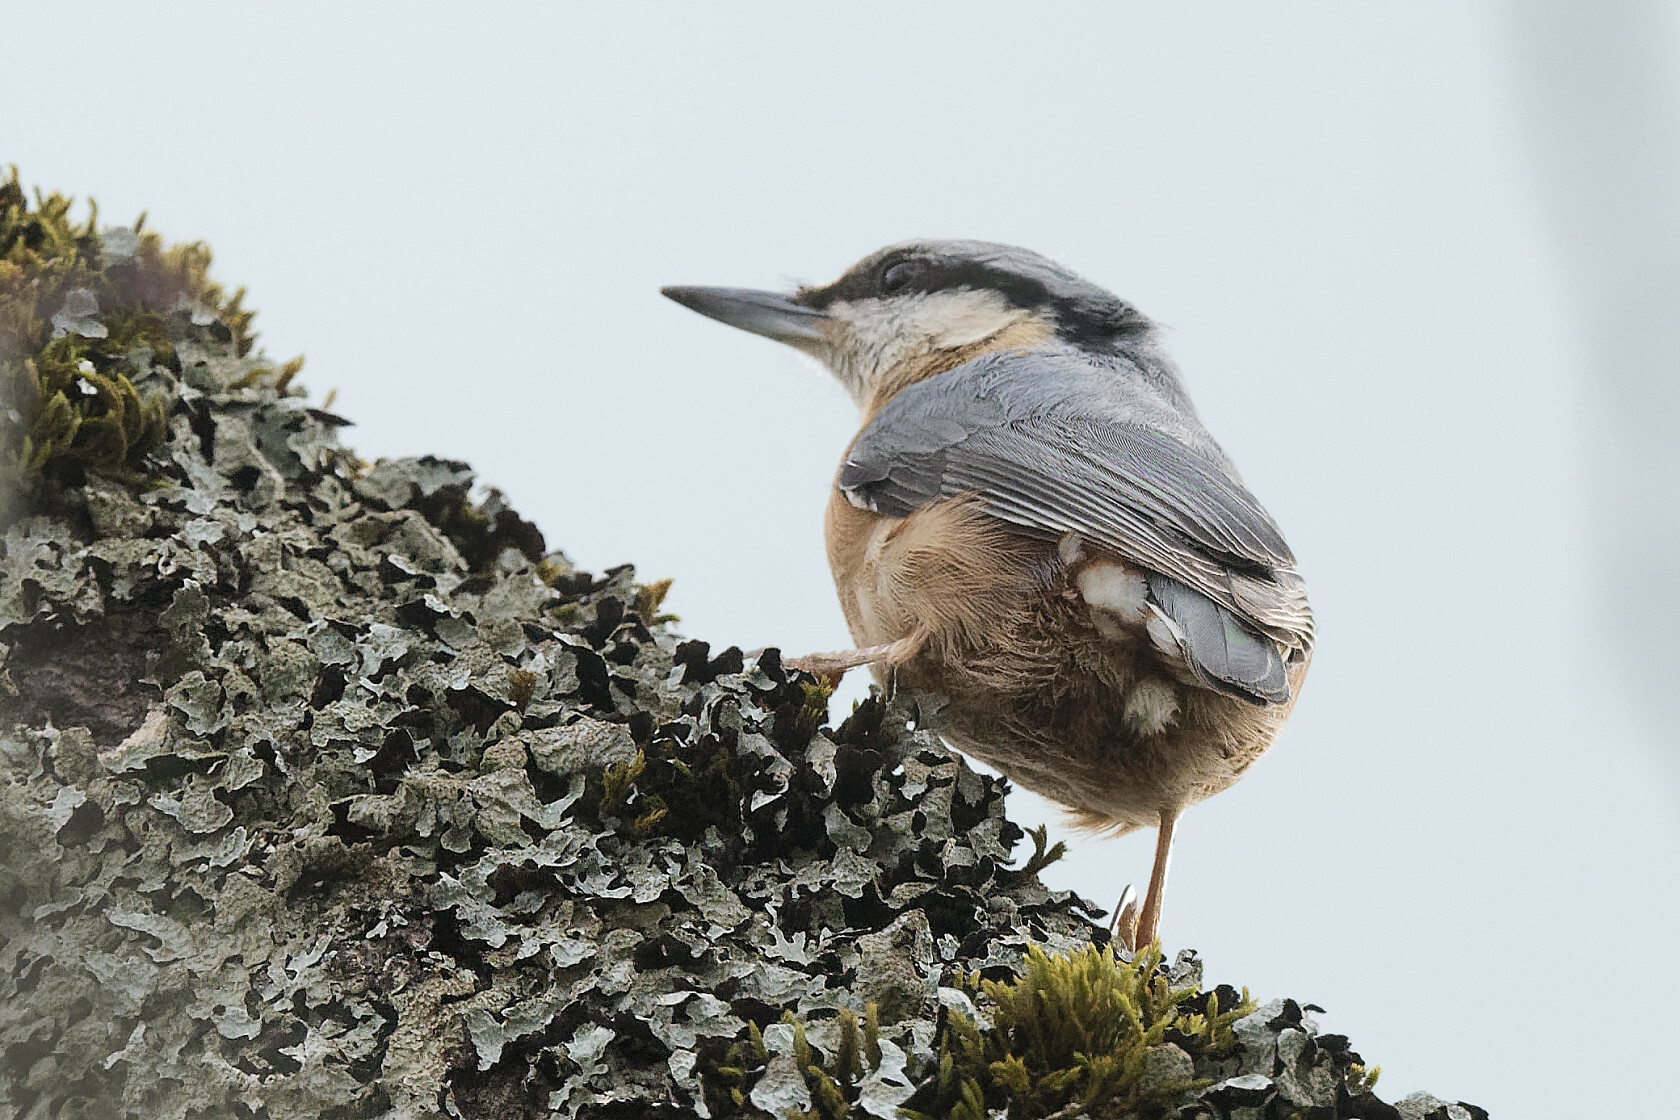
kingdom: Animalia
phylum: Chordata
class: Aves
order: Passeriformes
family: Sittidae
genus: Sitta
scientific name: Sitta europaea
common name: Eurasian nuthatch
